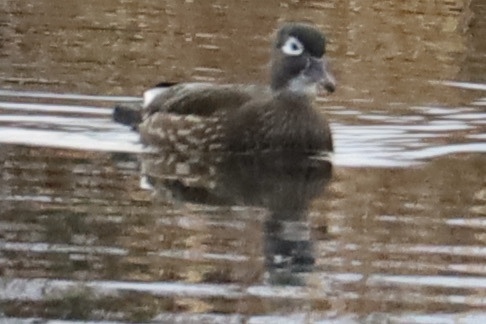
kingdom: Animalia
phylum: Chordata
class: Aves
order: Anseriformes
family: Anatidae
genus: Aix
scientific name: Aix sponsa
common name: Wood duck
